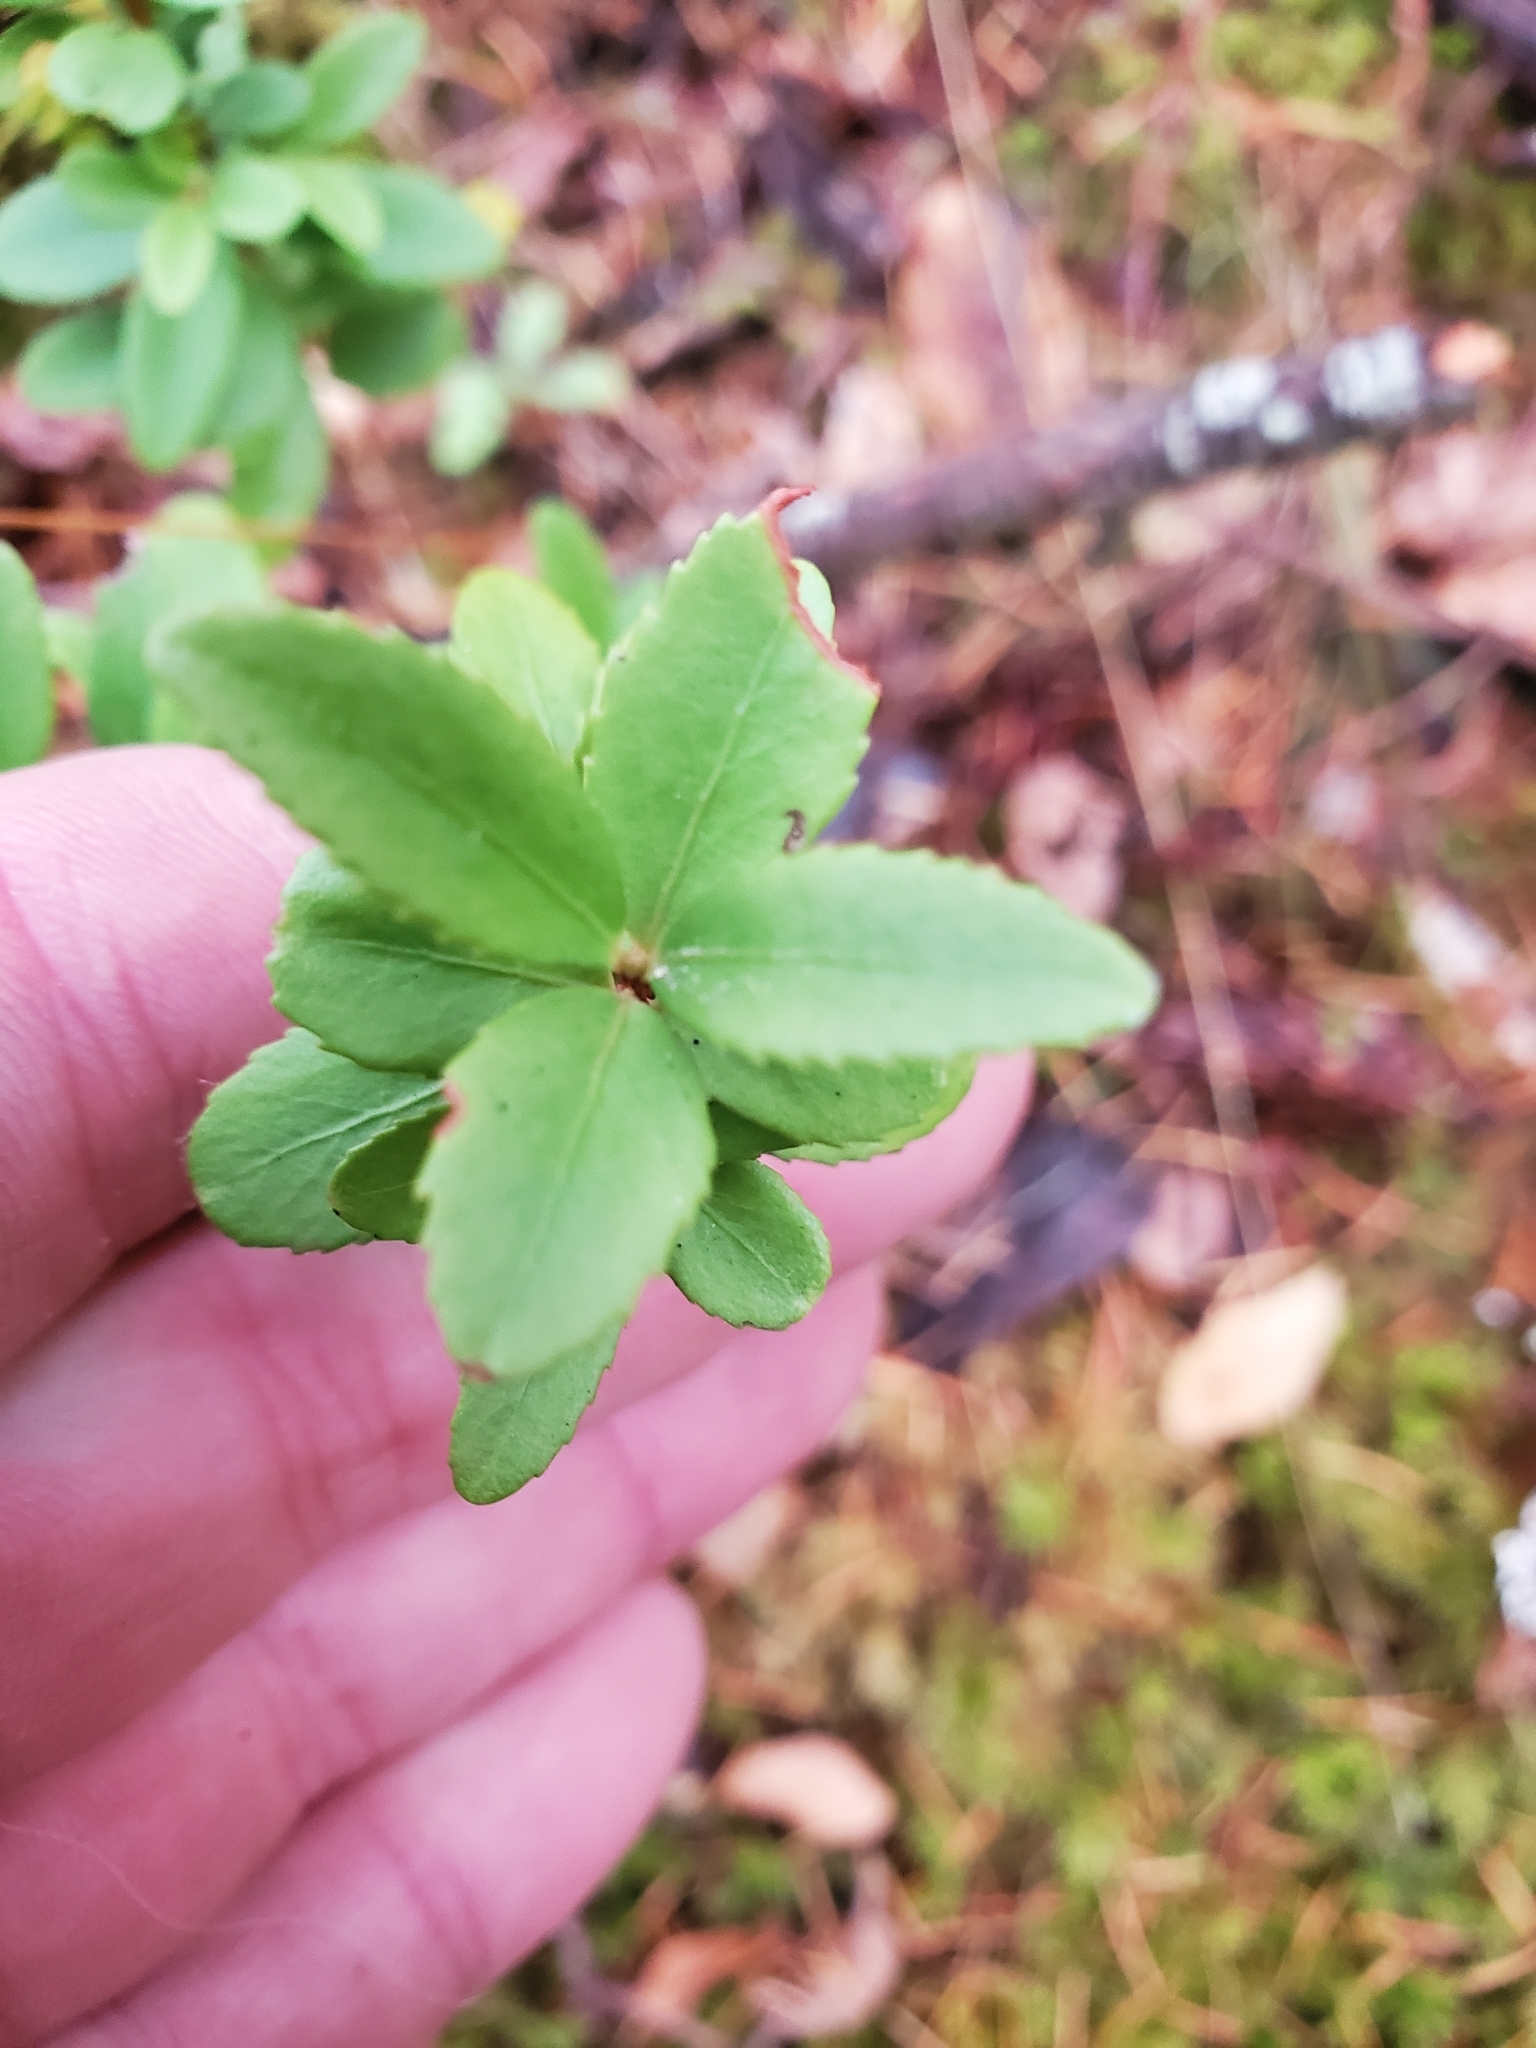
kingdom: Plantae
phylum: Tracheophyta
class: Magnoliopsida
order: Celastrales
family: Celastraceae
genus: Paxistima
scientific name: Paxistima myrsinites
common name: Mountain-lover
